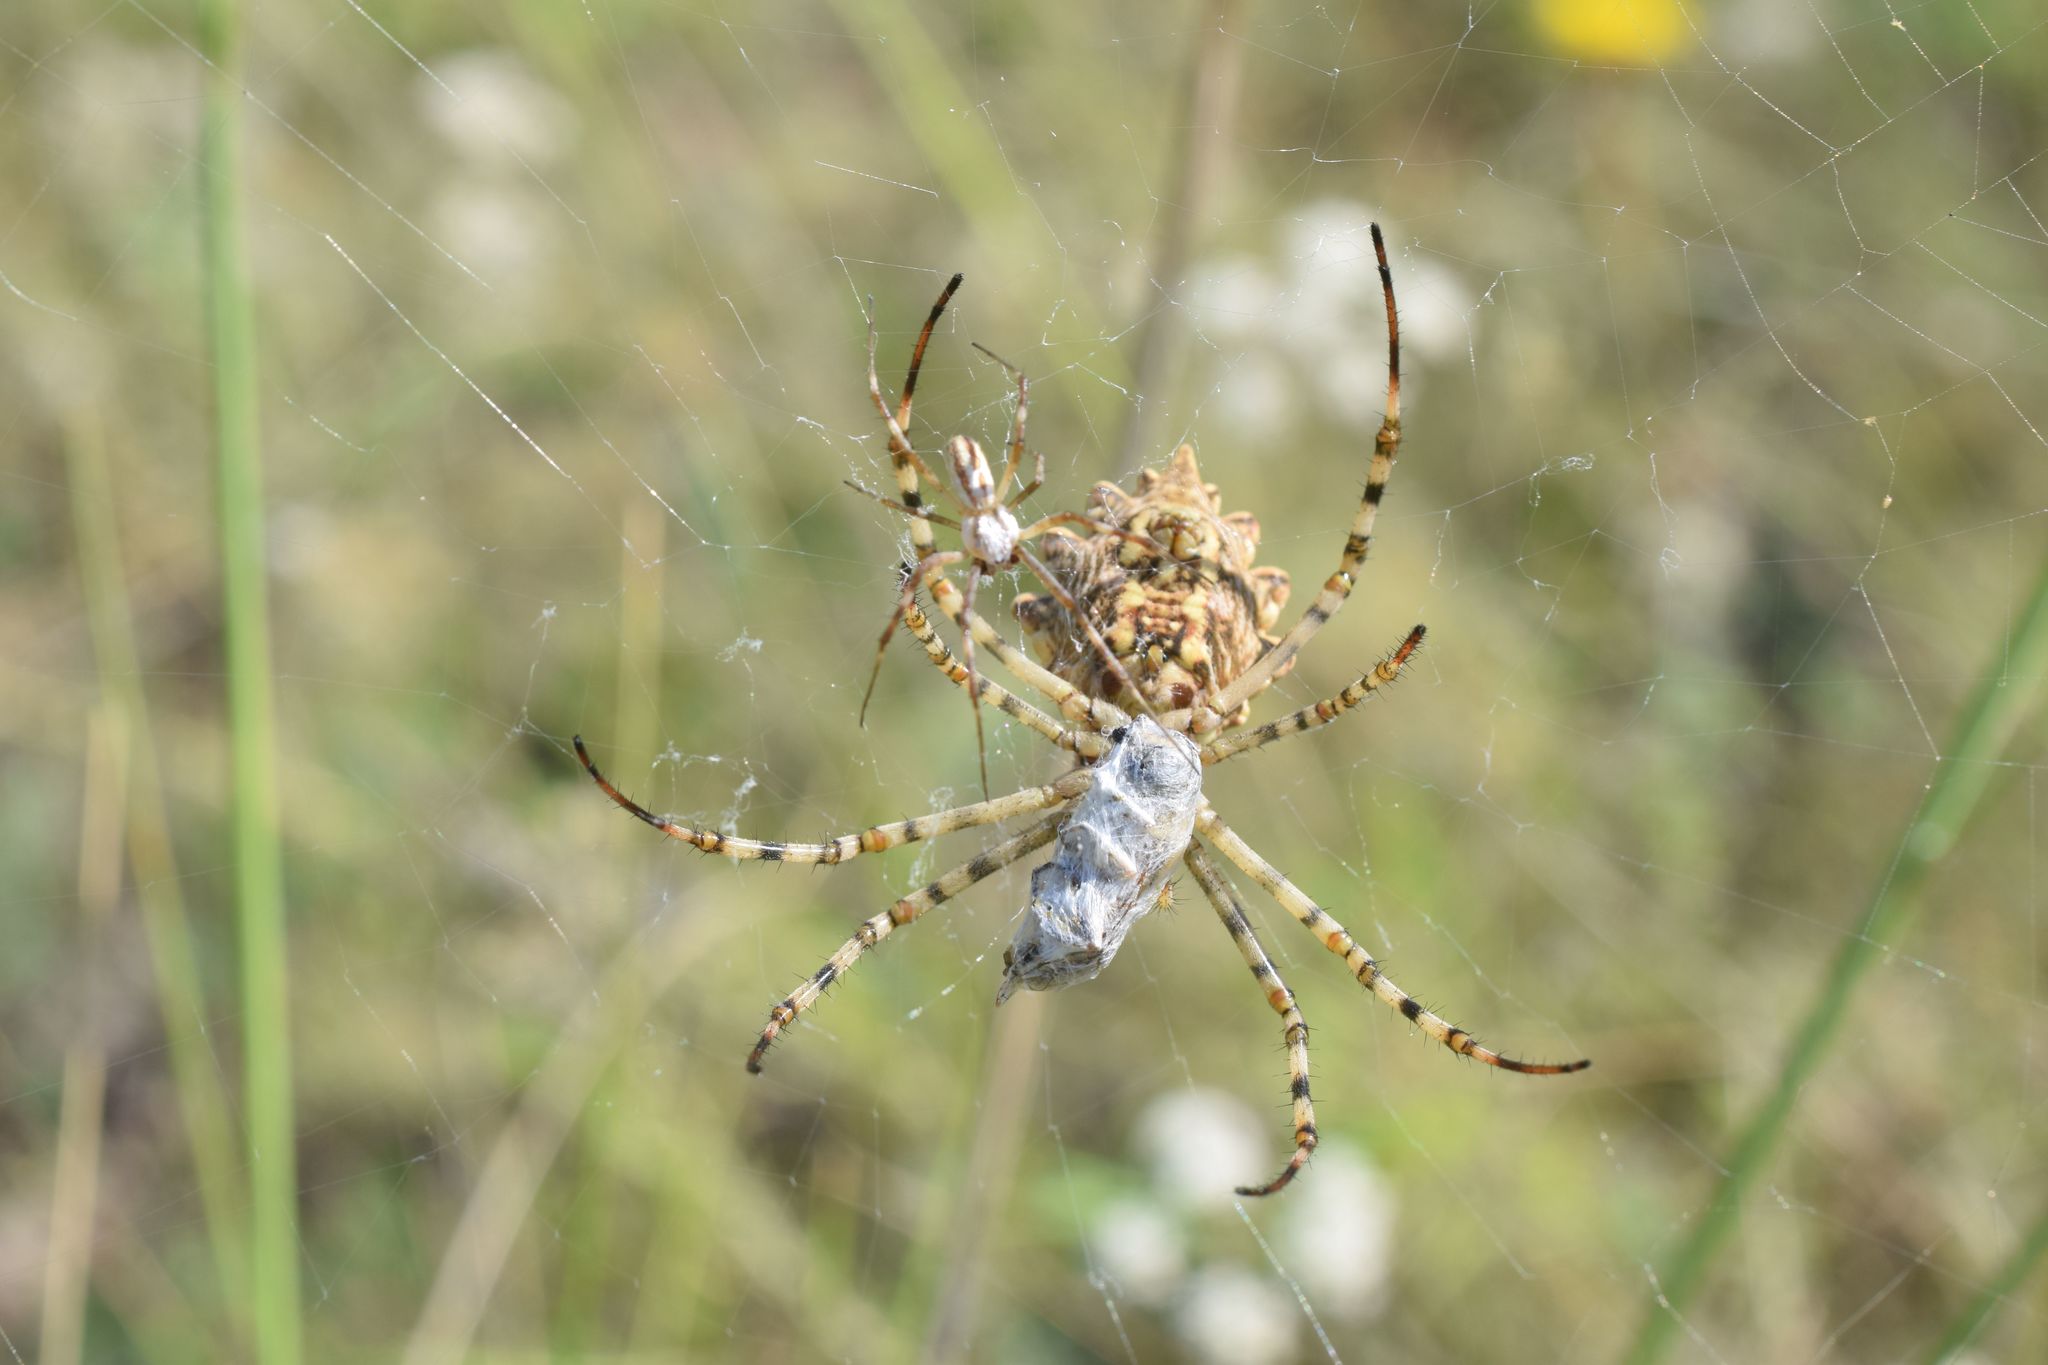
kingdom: Animalia
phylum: Arthropoda
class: Arachnida
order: Araneae
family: Araneidae
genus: Argiope
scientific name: Argiope lobata
